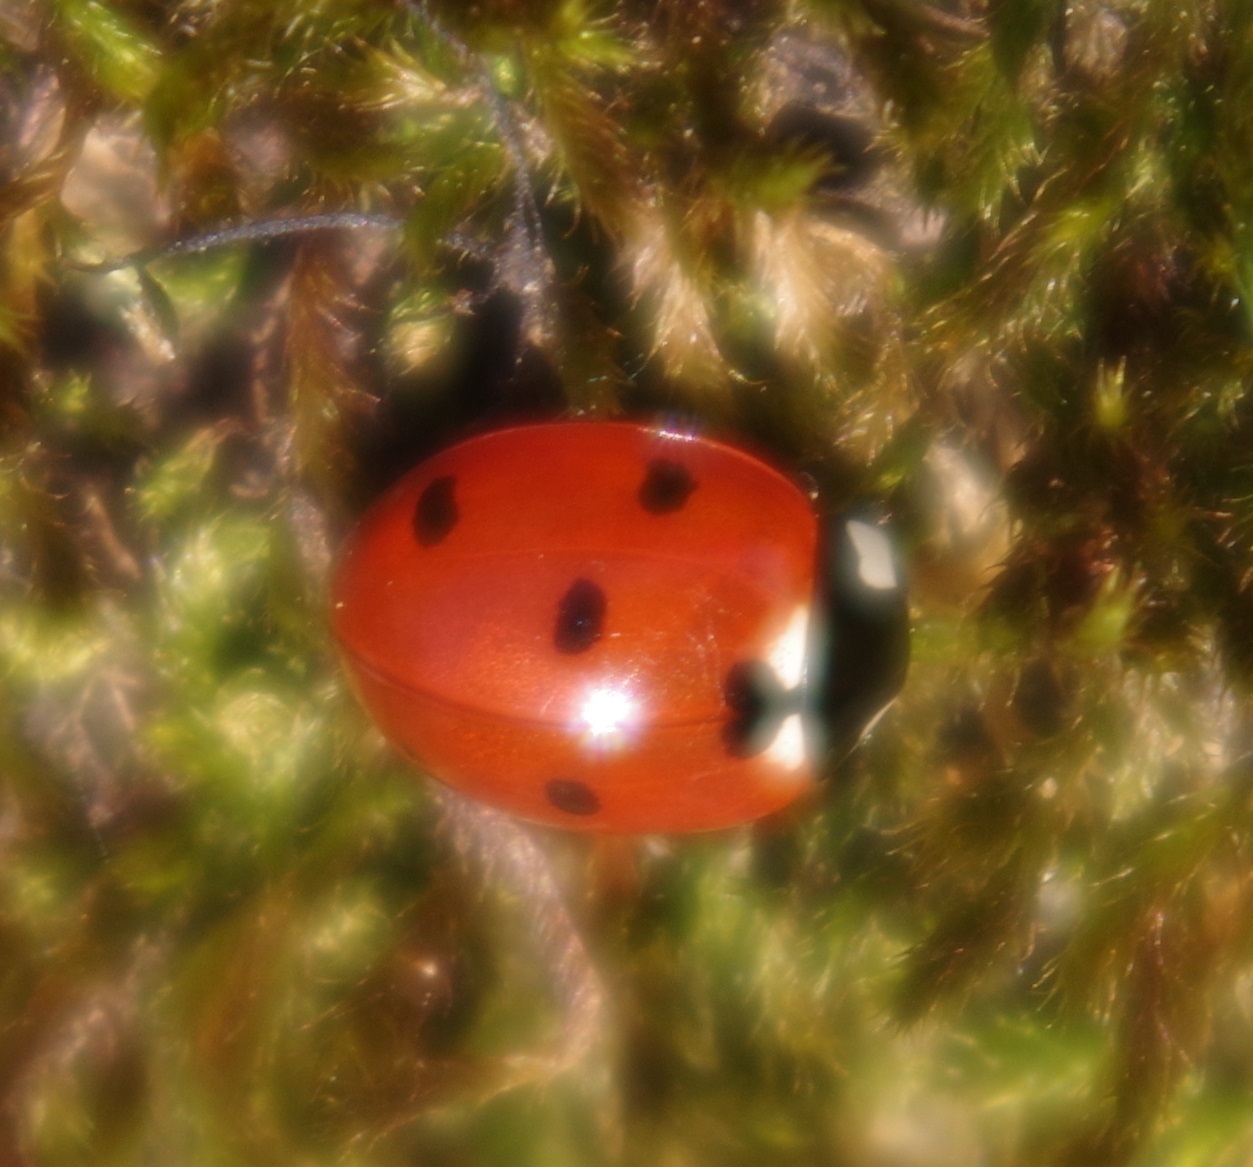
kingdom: Animalia
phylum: Arthropoda
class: Insecta
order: Coleoptera
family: Coccinellidae
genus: Coccinella
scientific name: Coccinella septempunctata
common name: Sevenspotted lady beetle
